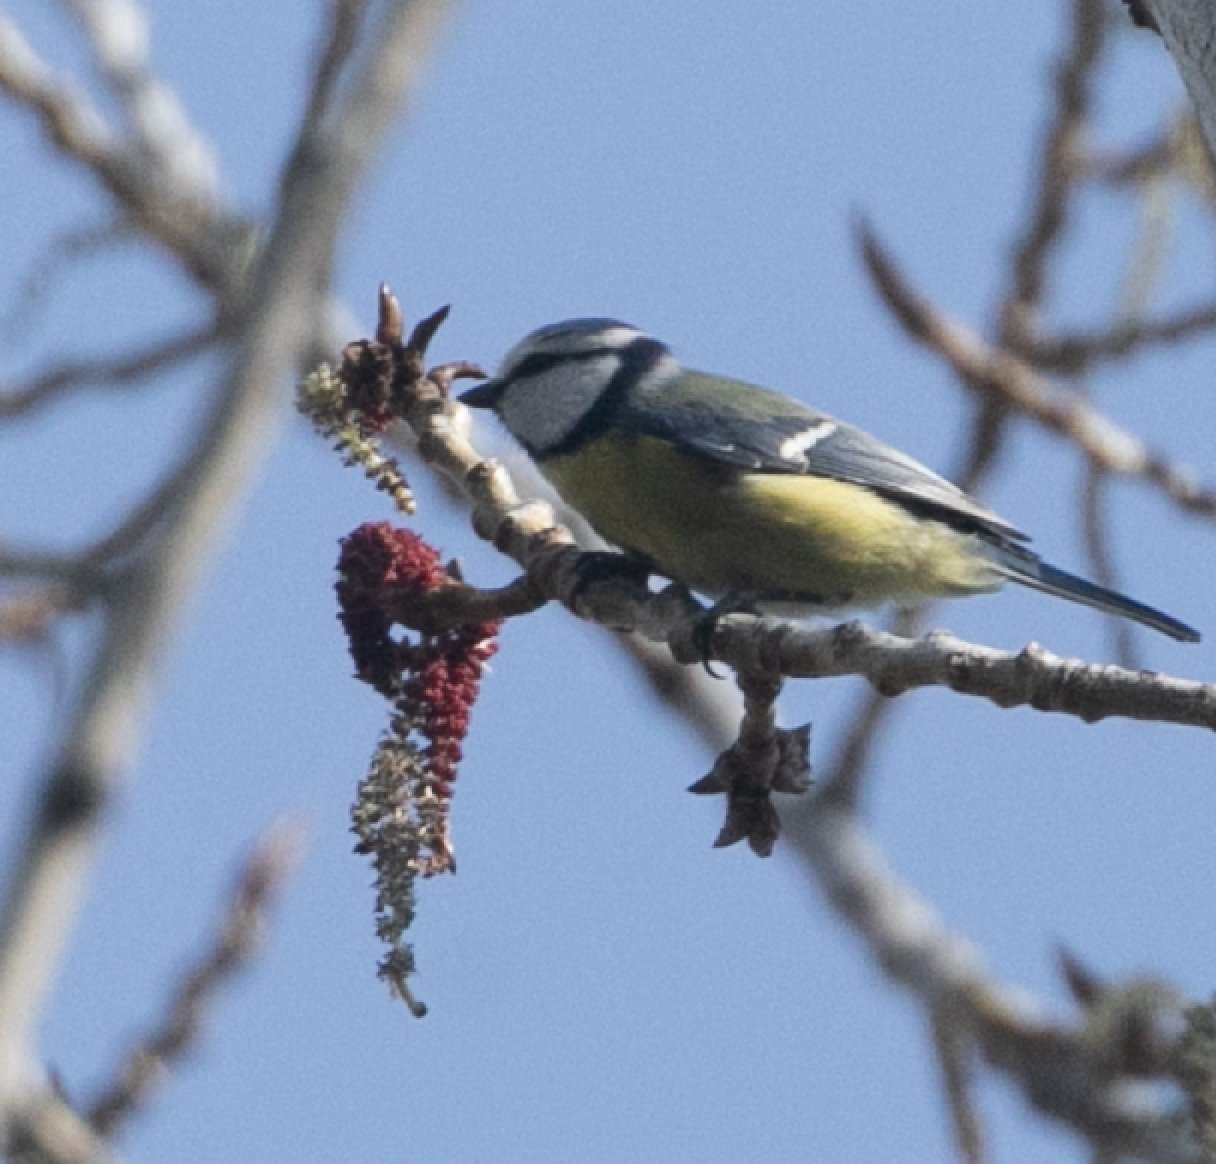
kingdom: Animalia
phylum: Chordata
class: Aves
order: Passeriformes
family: Paridae
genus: Cyanistes
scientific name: Cyanistes caeruleus
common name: Eurasian blue tit
